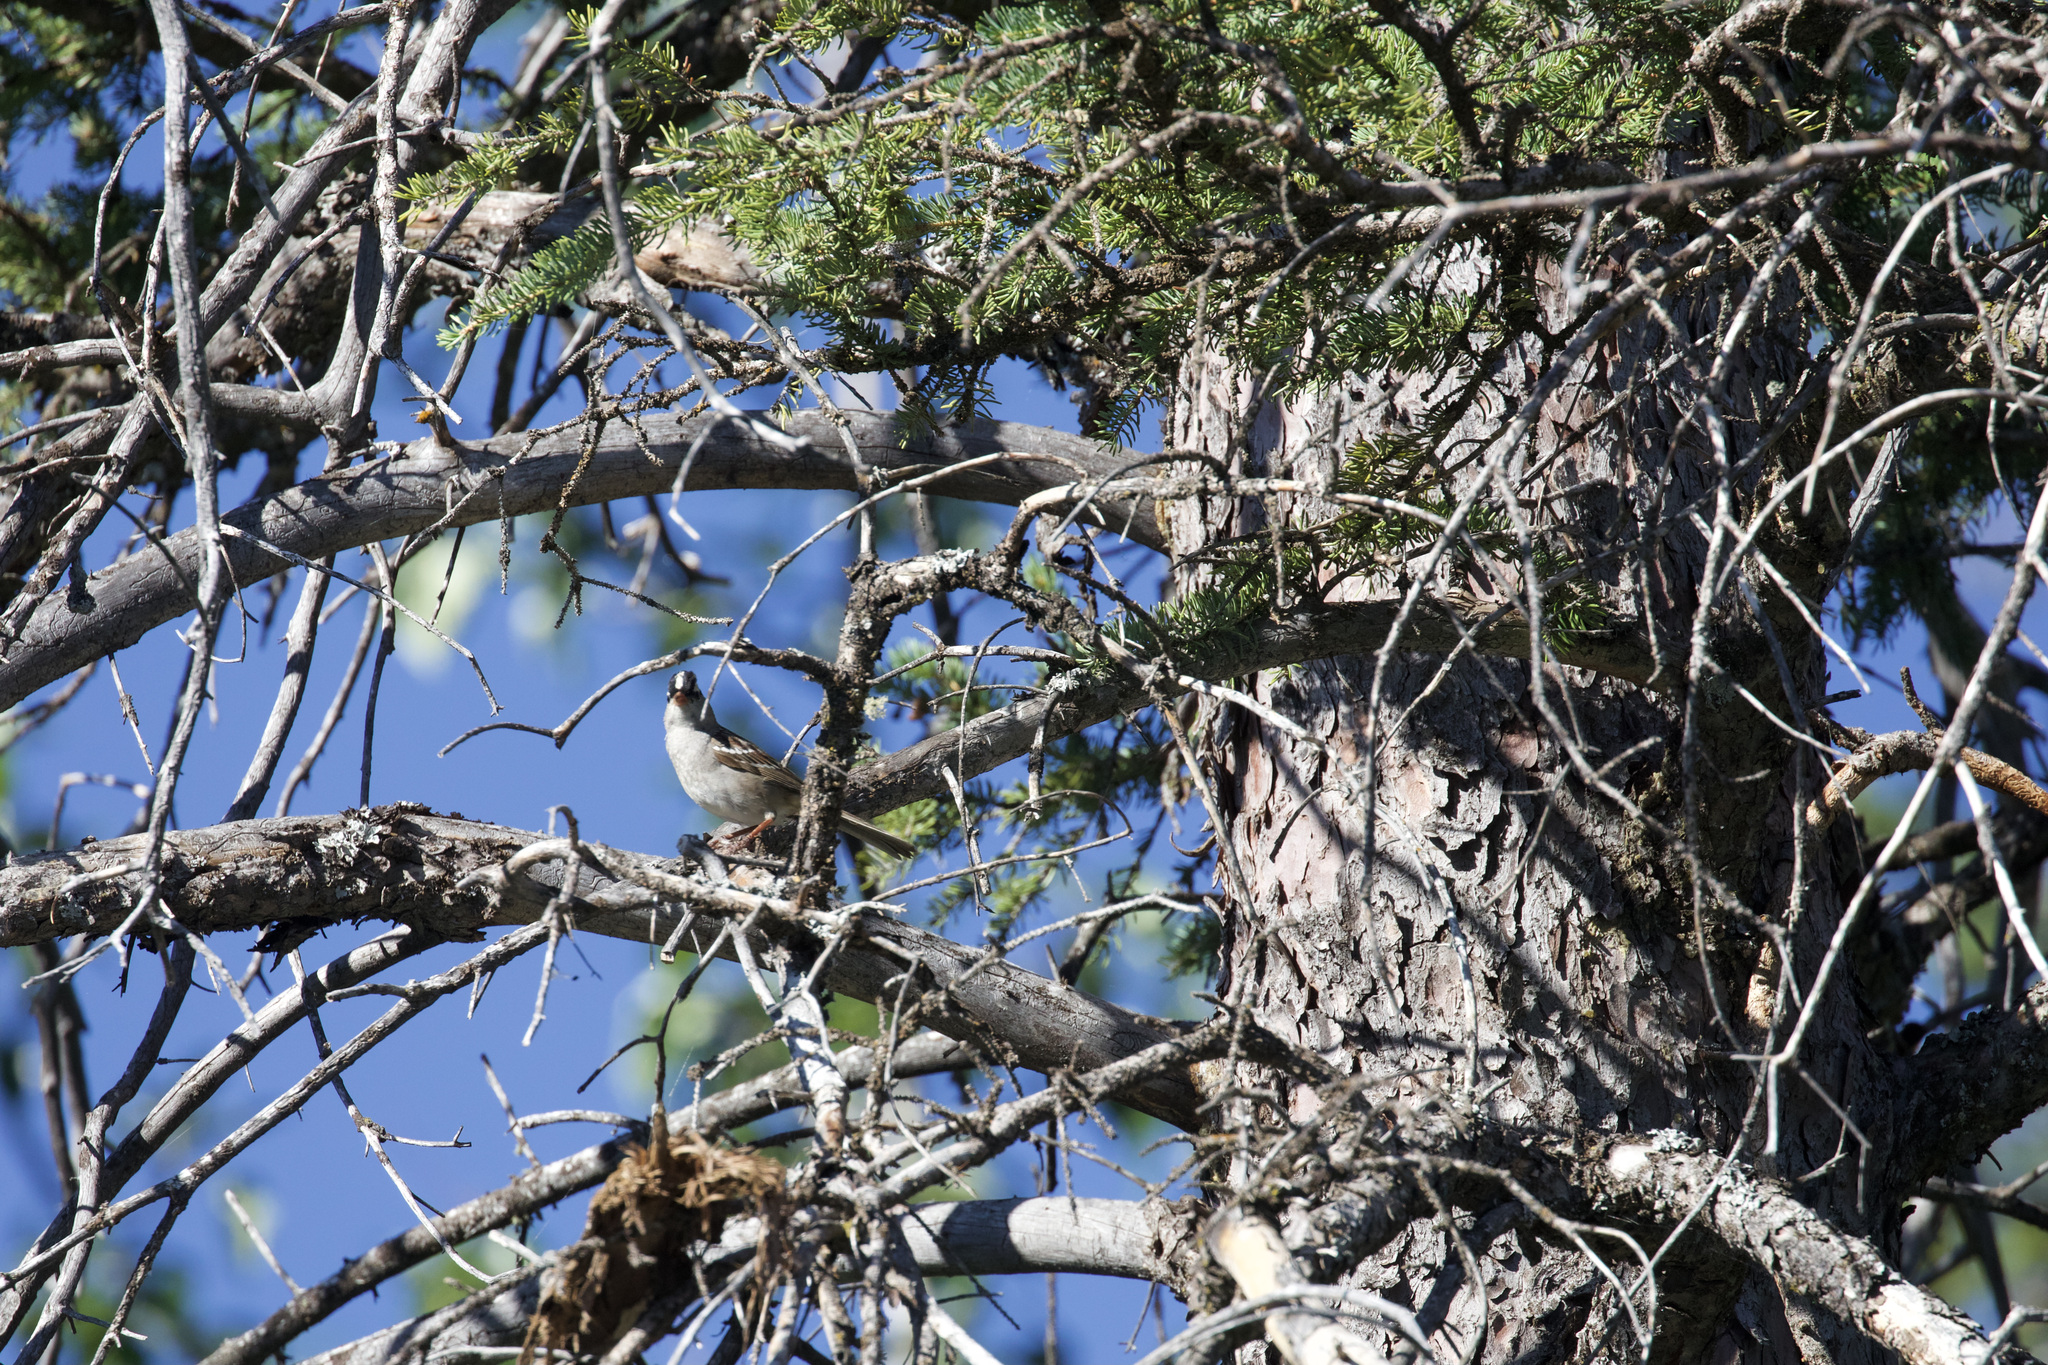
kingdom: Animalia
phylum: Chordata
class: Aves
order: Passeriformes
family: Passerellidae
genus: Zonotrichia
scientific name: Zonotrichia leucophrys
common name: White-crowned sparrow
